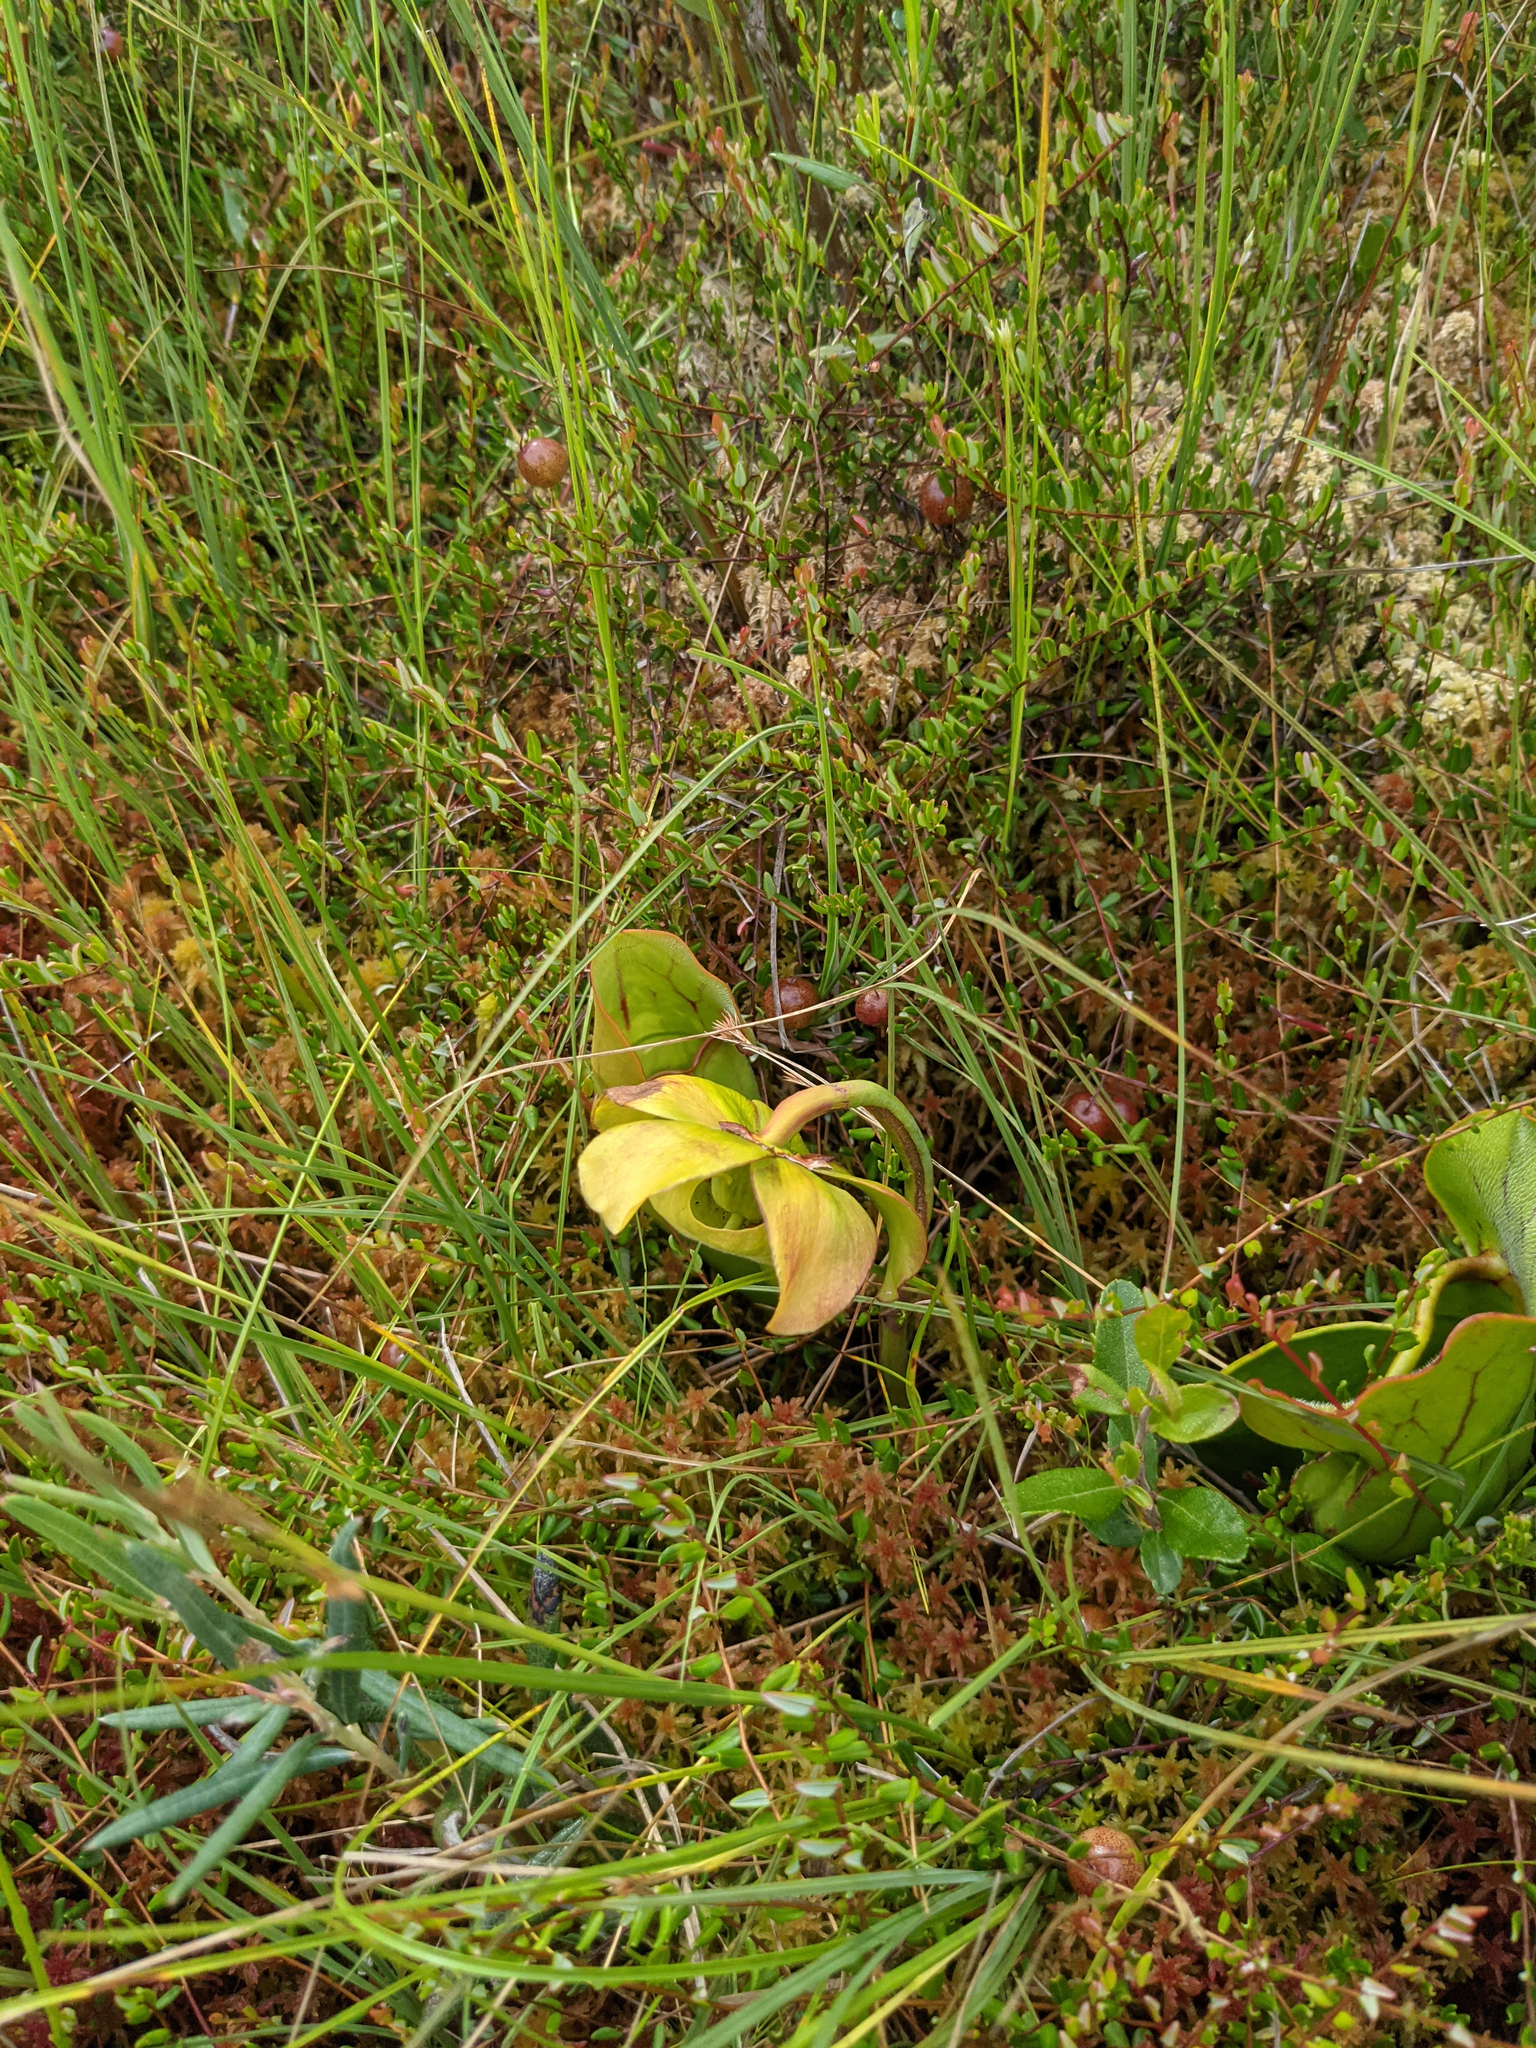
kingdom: Plantae
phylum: Tracheophyta
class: Magnoliopsida
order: Ericales
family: Sarraceniaceae
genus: Sarracenia
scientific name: Sarracenia purpurea
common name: Pitcherplant
